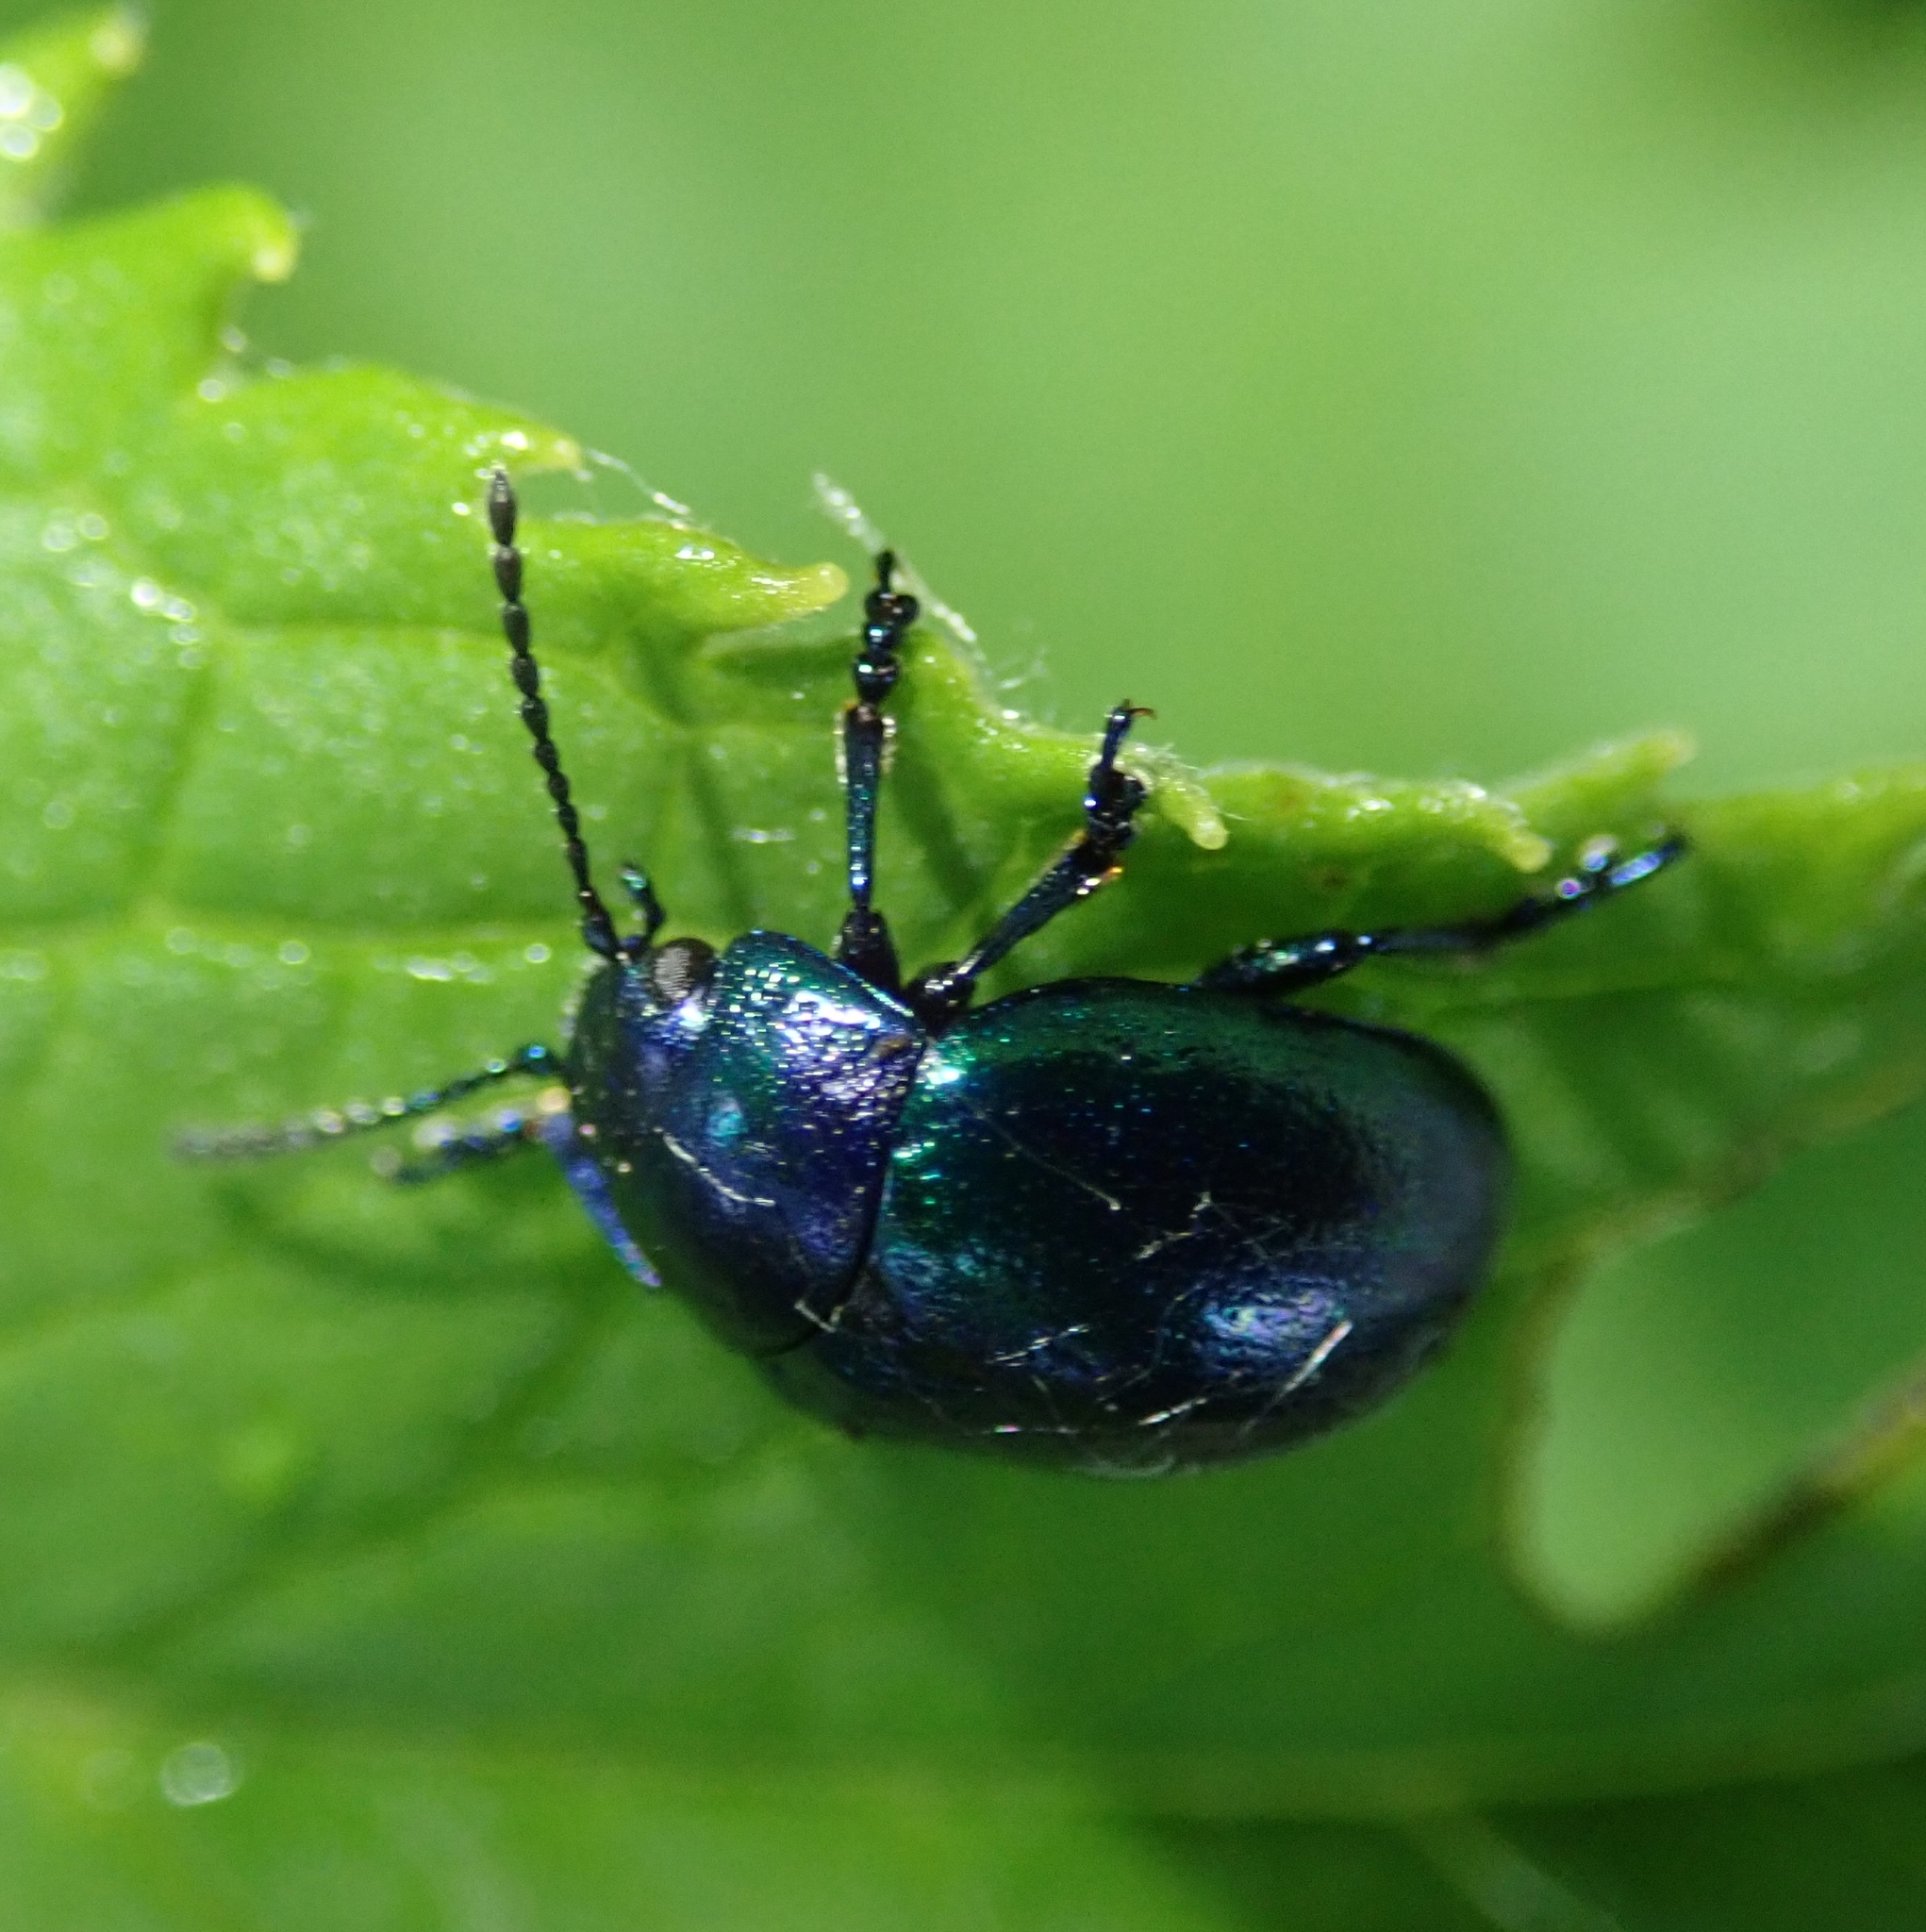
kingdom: Animalia
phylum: Arthropoda
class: Insecta
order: Coleoptera
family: Chrysomelidae
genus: Chrysolina
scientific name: Chrysolina coerulans
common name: Blue mint beetle
